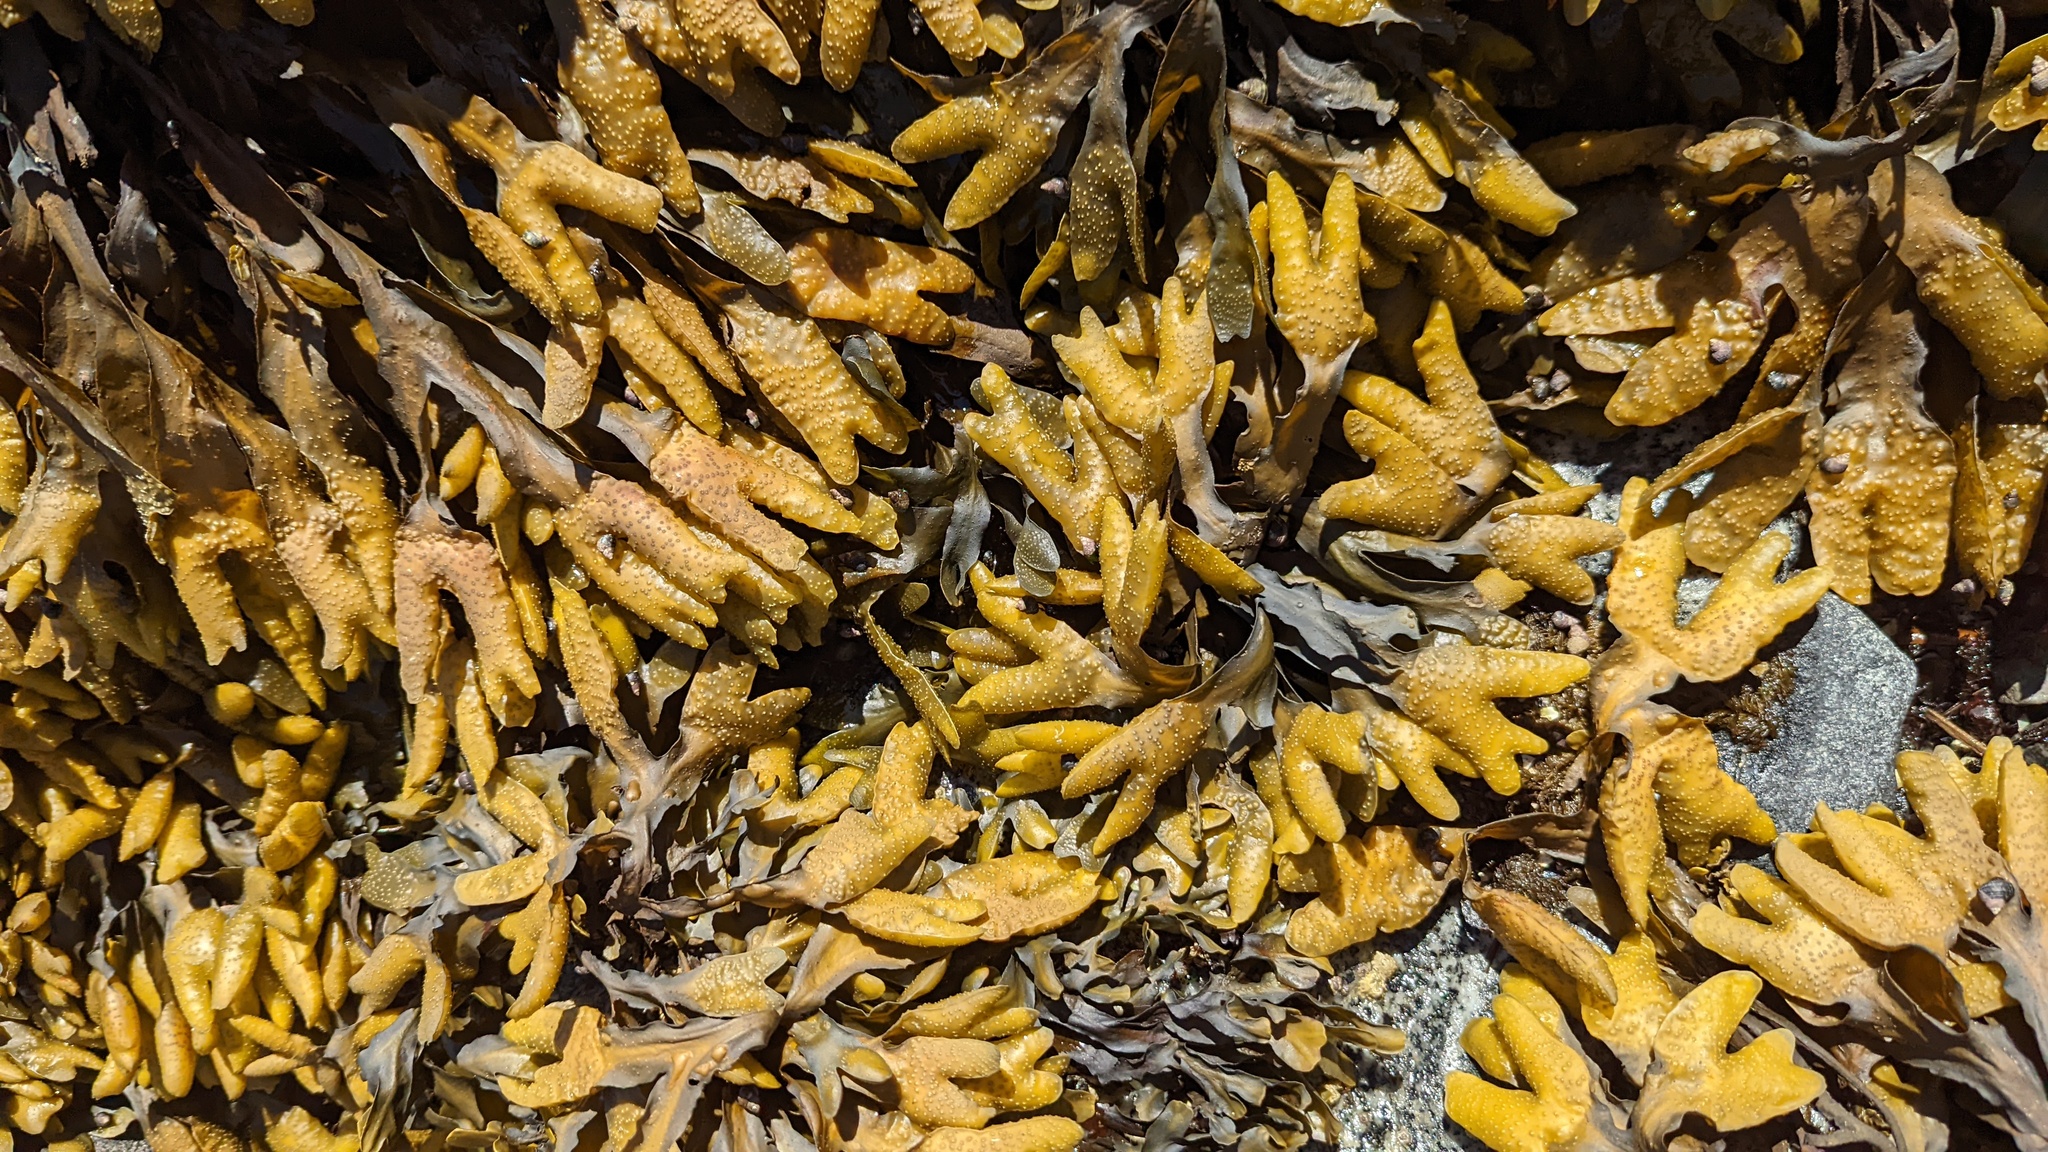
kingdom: Chromista
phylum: Ochrophyta
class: Phaeophyceae
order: Fucales
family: Fucaceae
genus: Fucus
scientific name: Fucus distichus
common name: Rockweed
